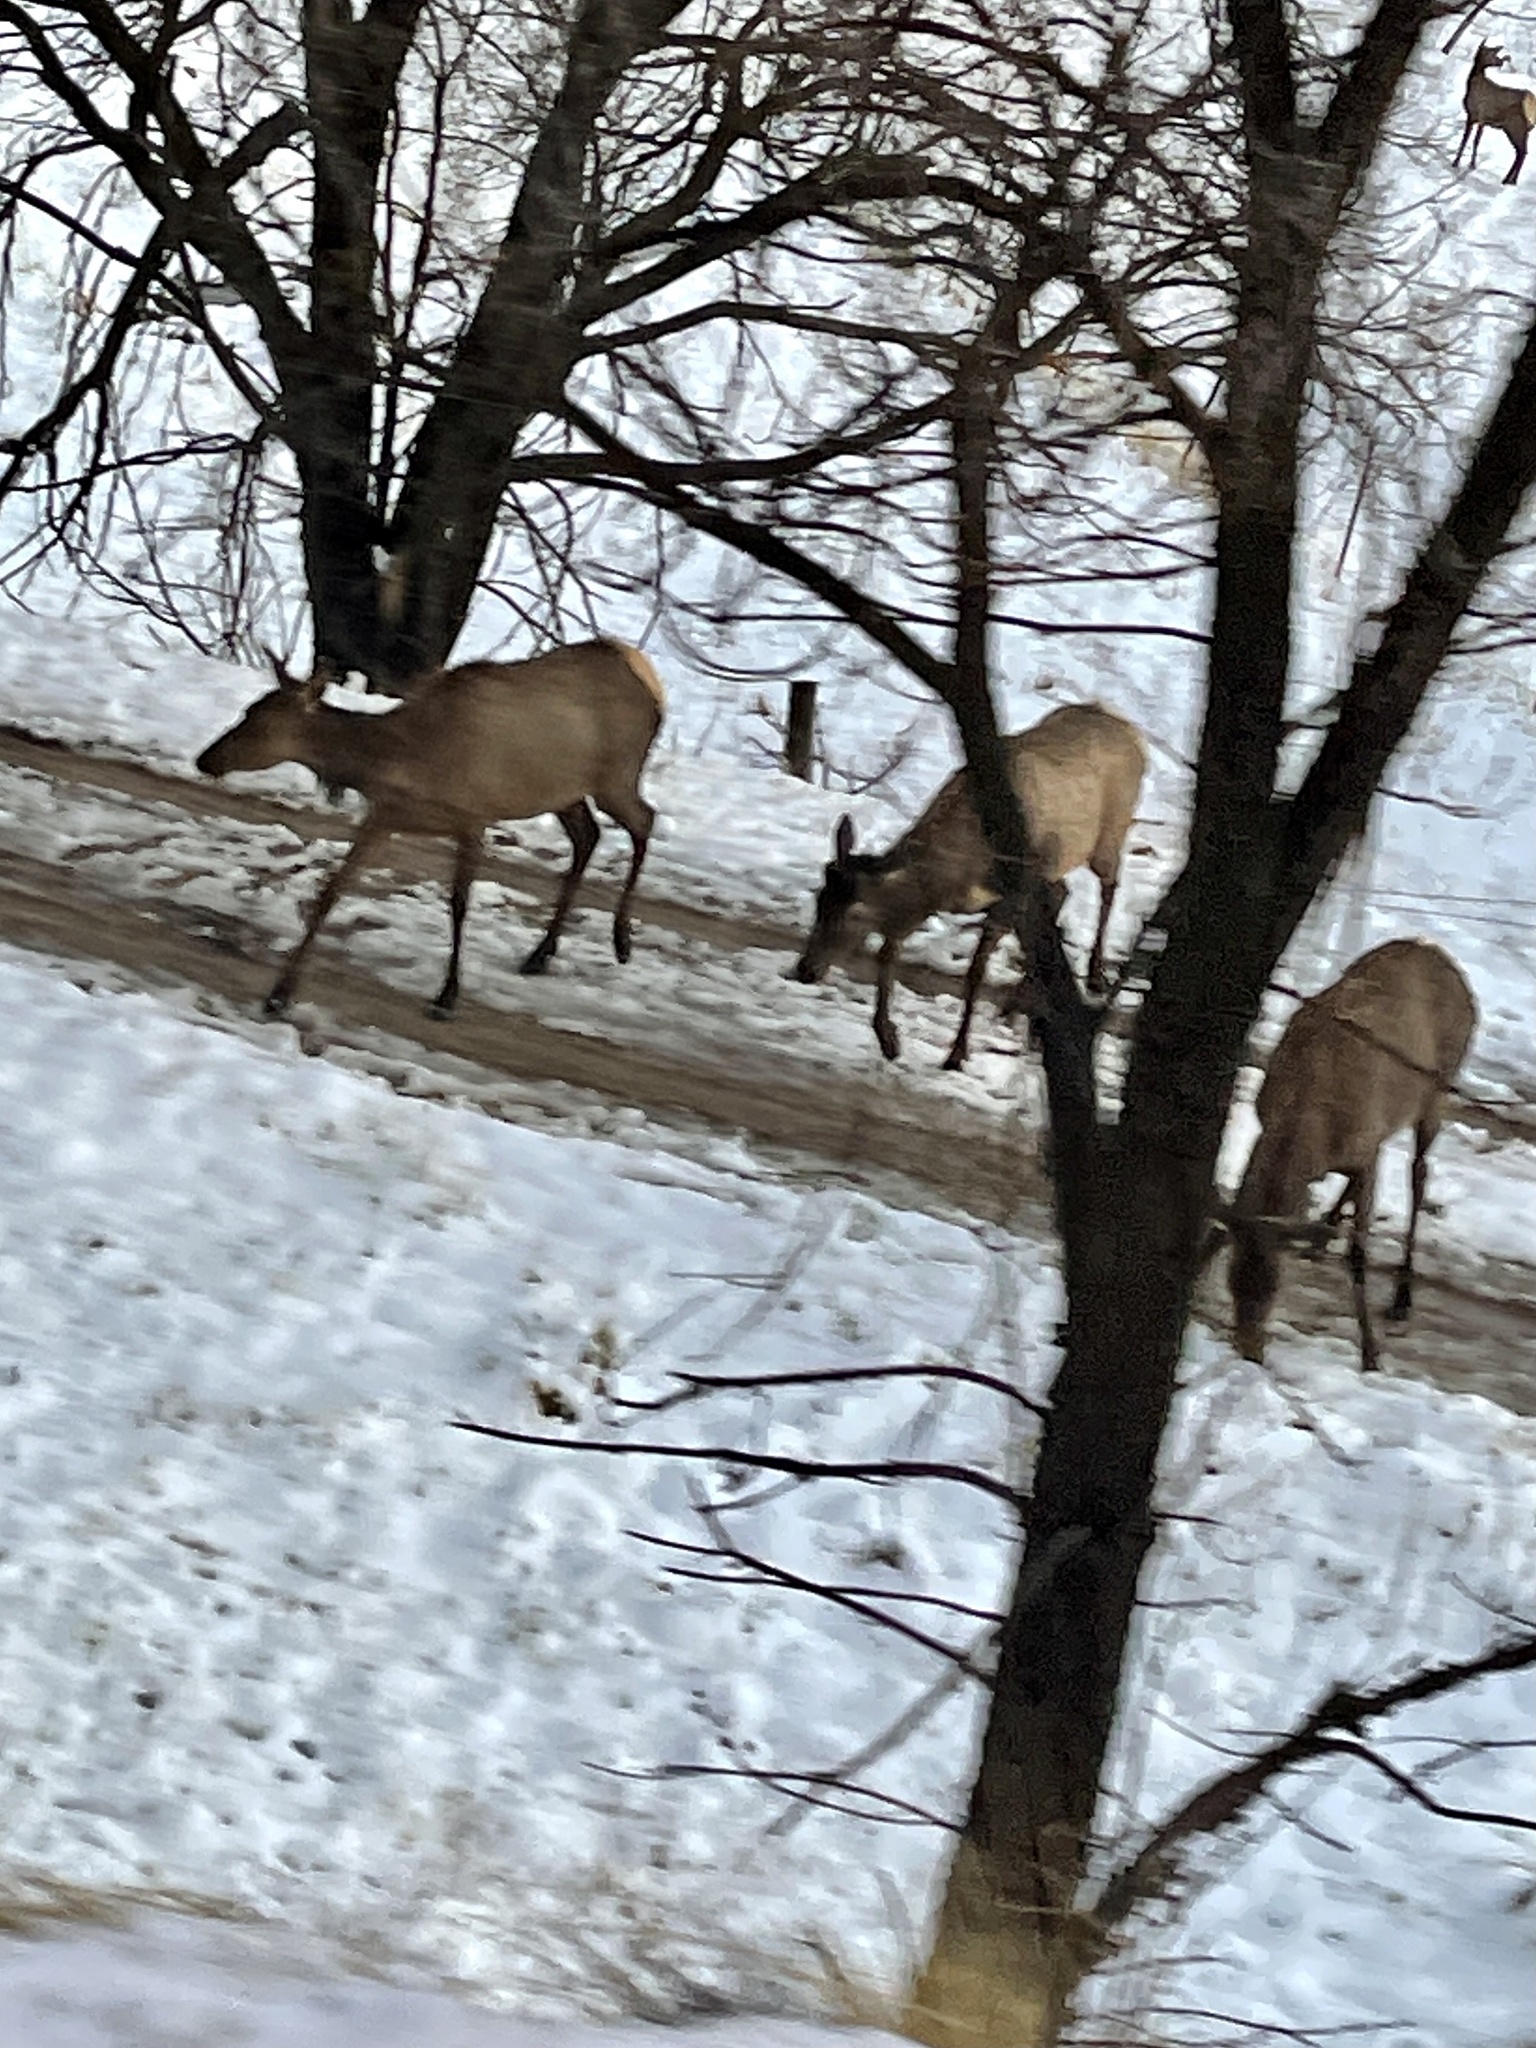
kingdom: Animalia
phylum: Chordata
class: Mammalia
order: Artiodactyla
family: Cervidae
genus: Cervus
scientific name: Cervus elaphus
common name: Red deer
